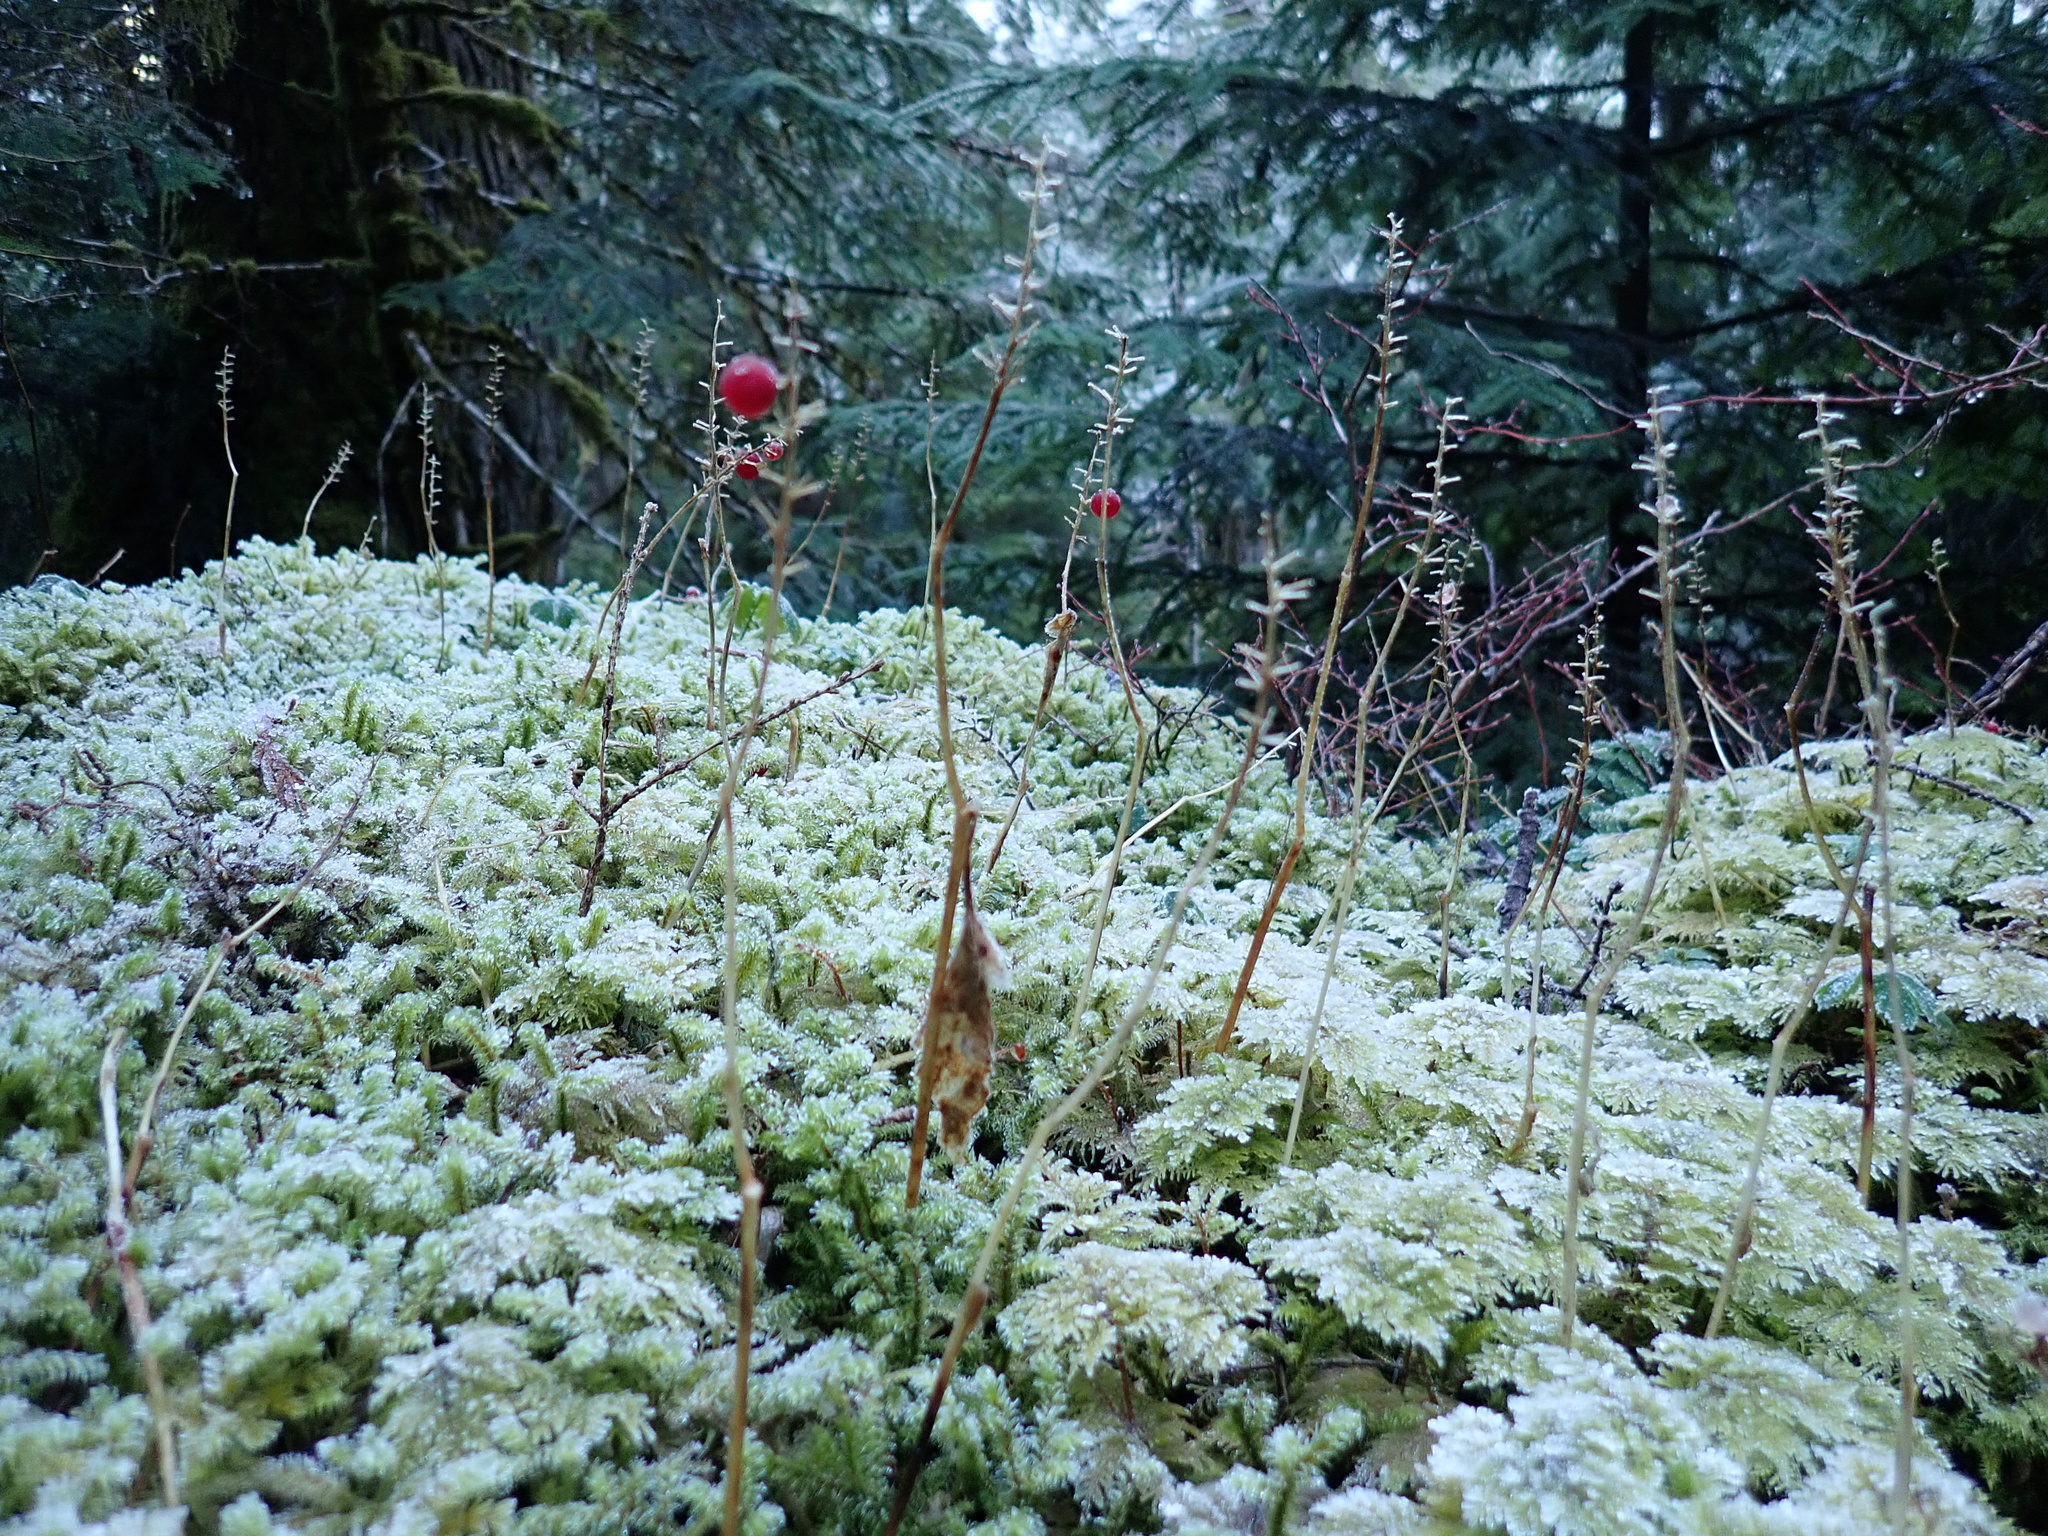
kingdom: Plantae
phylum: Tracheophyta
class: Liliopsida
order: Asparagales
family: Asparagaceae
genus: Maianthemum
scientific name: Maianthemum dilatatum
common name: False lily-of-the-valley
